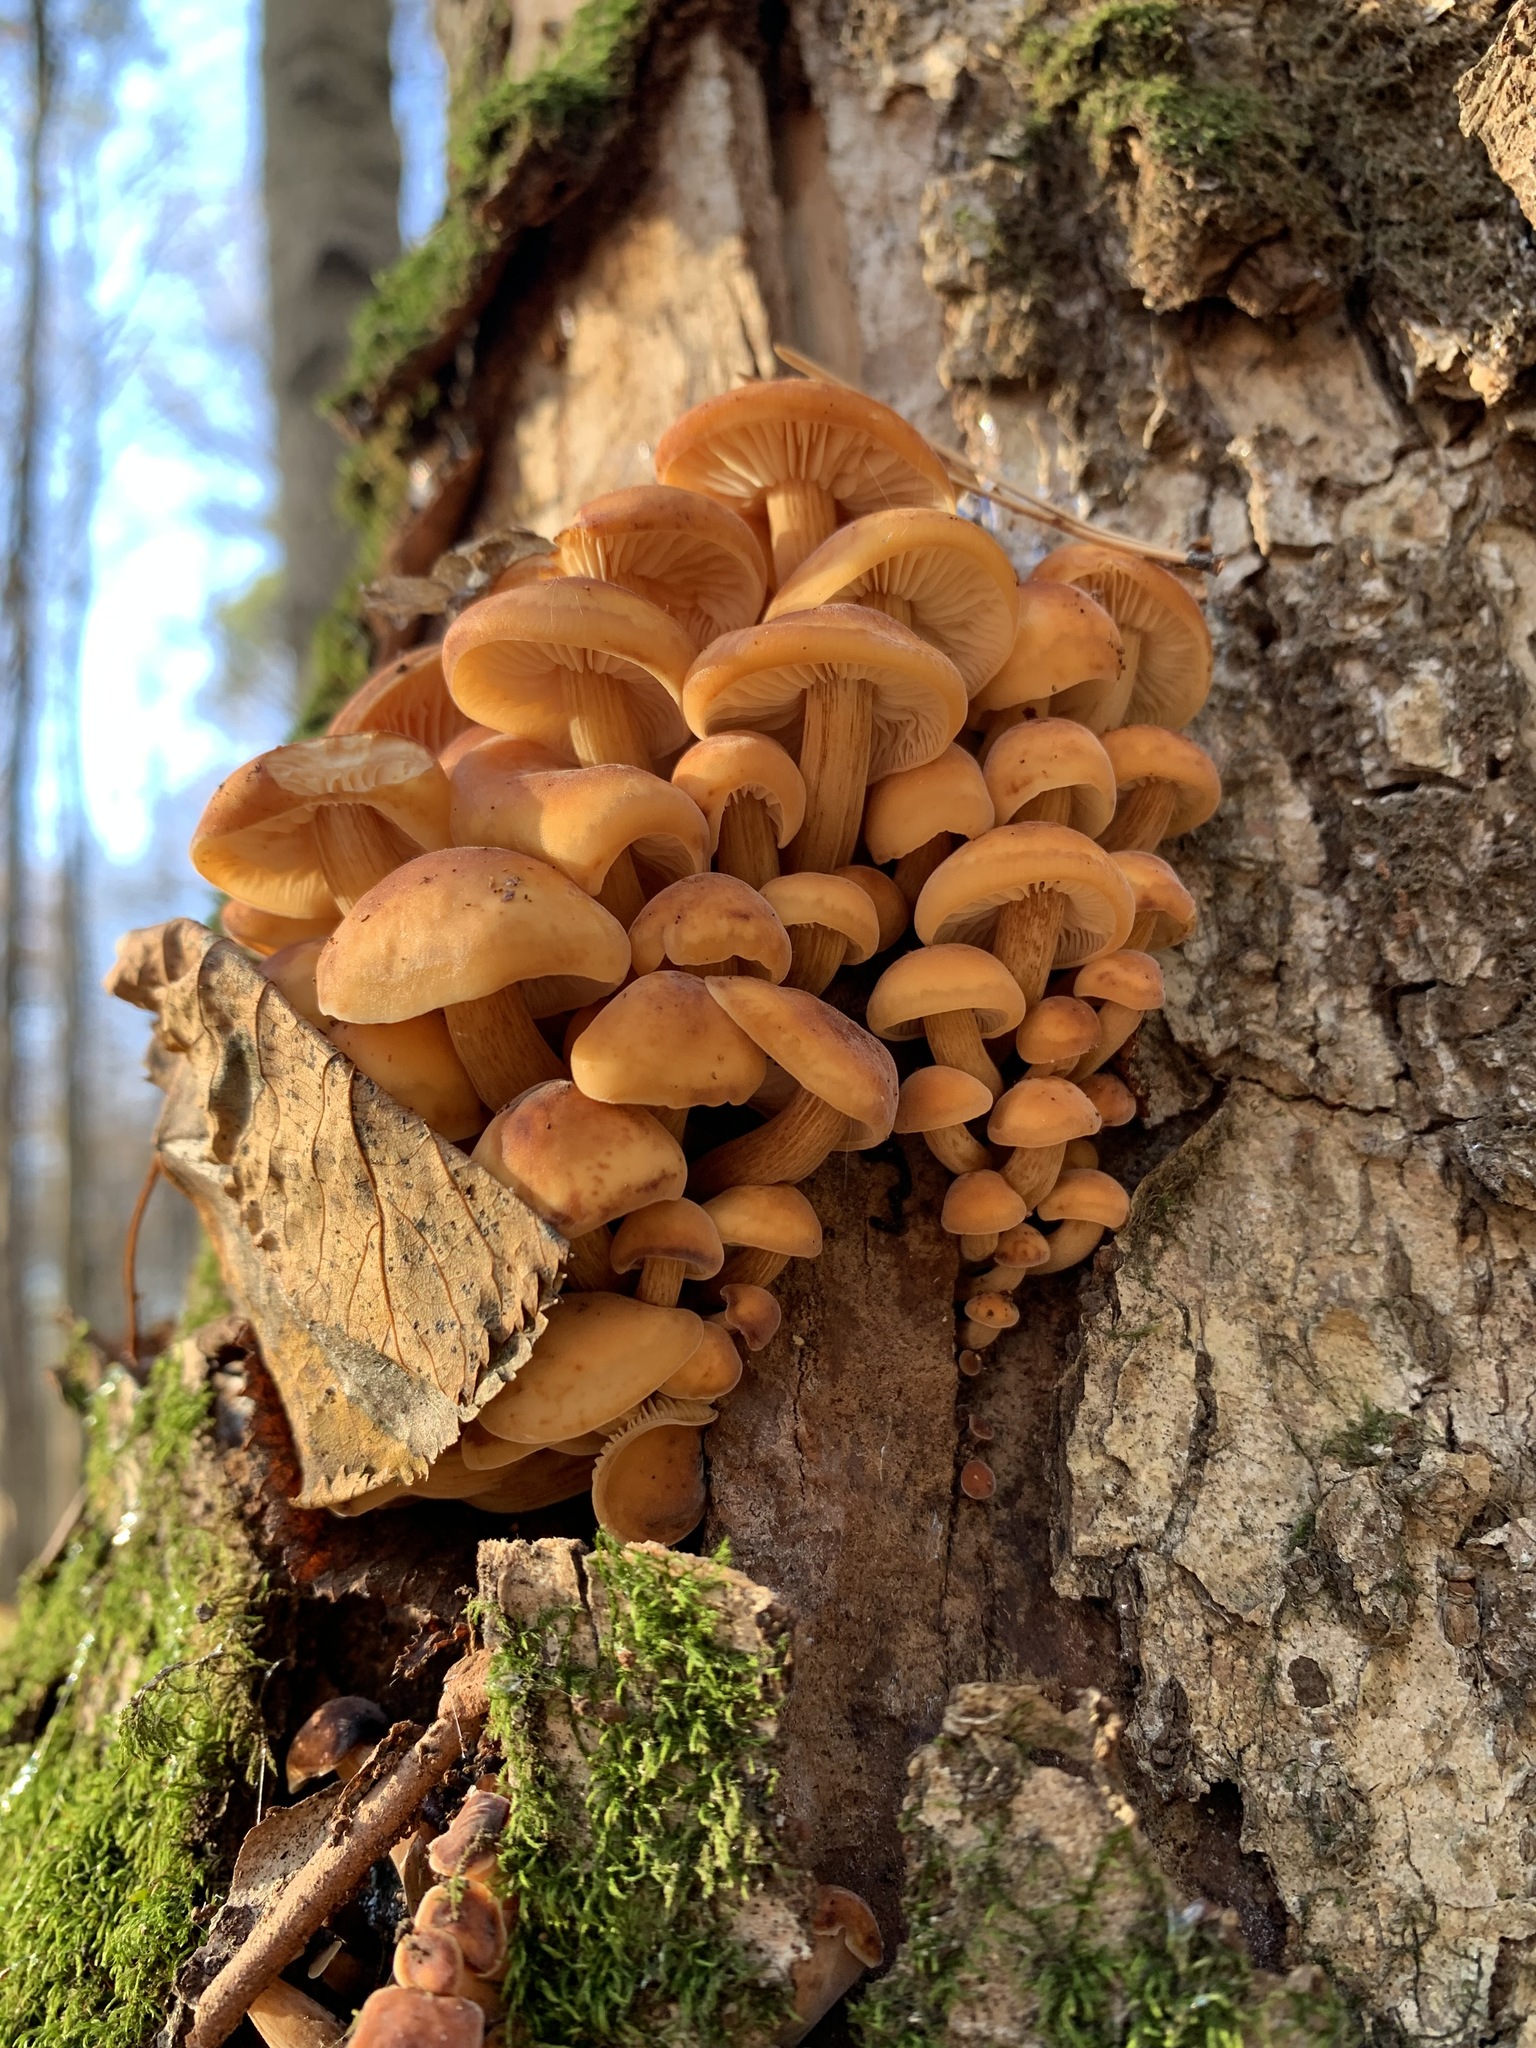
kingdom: Fungi
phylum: Basidiomycota
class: Agaricomycetes
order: Agaricales
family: Physalacriaceae
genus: Flammulina
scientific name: Flammulina
